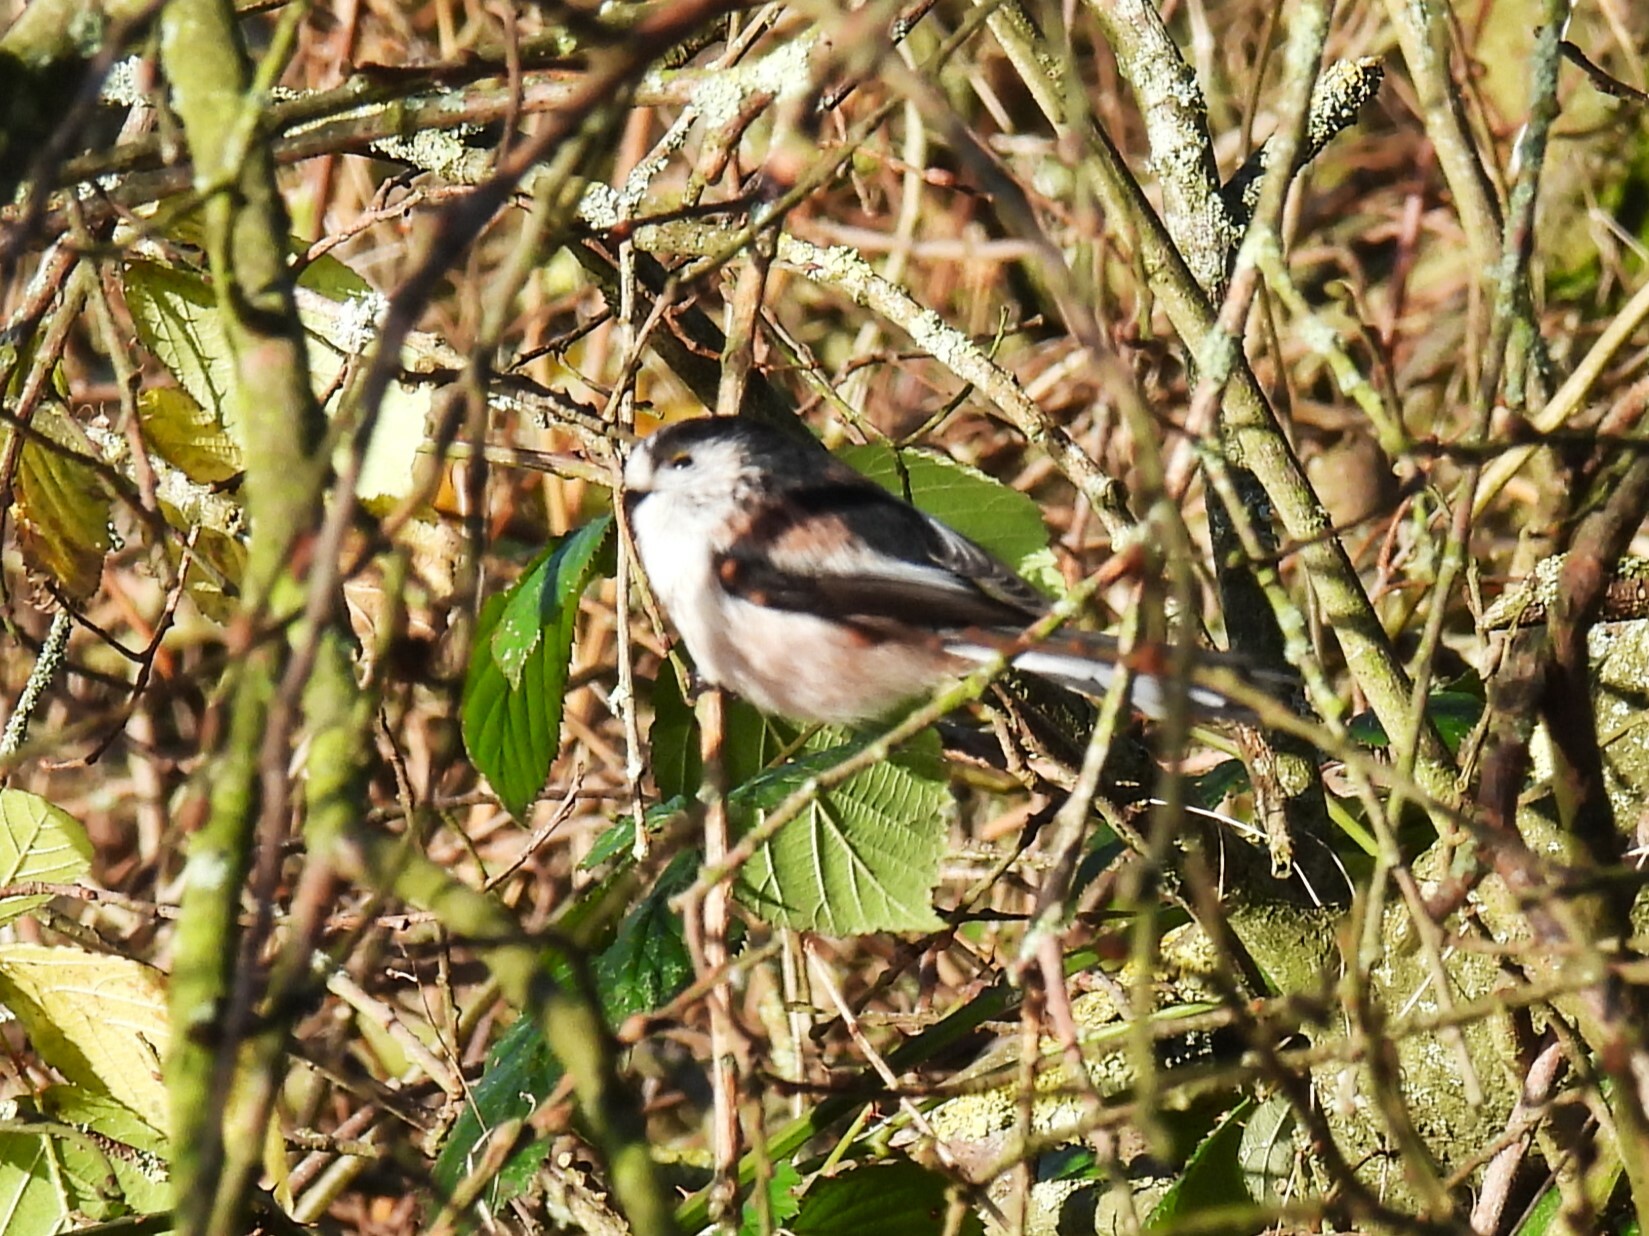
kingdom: Animalia
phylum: Chordata
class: Aves
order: Passeriformes
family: Aegithalidae
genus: Aegithalos
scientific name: Aegithalos caudatus
